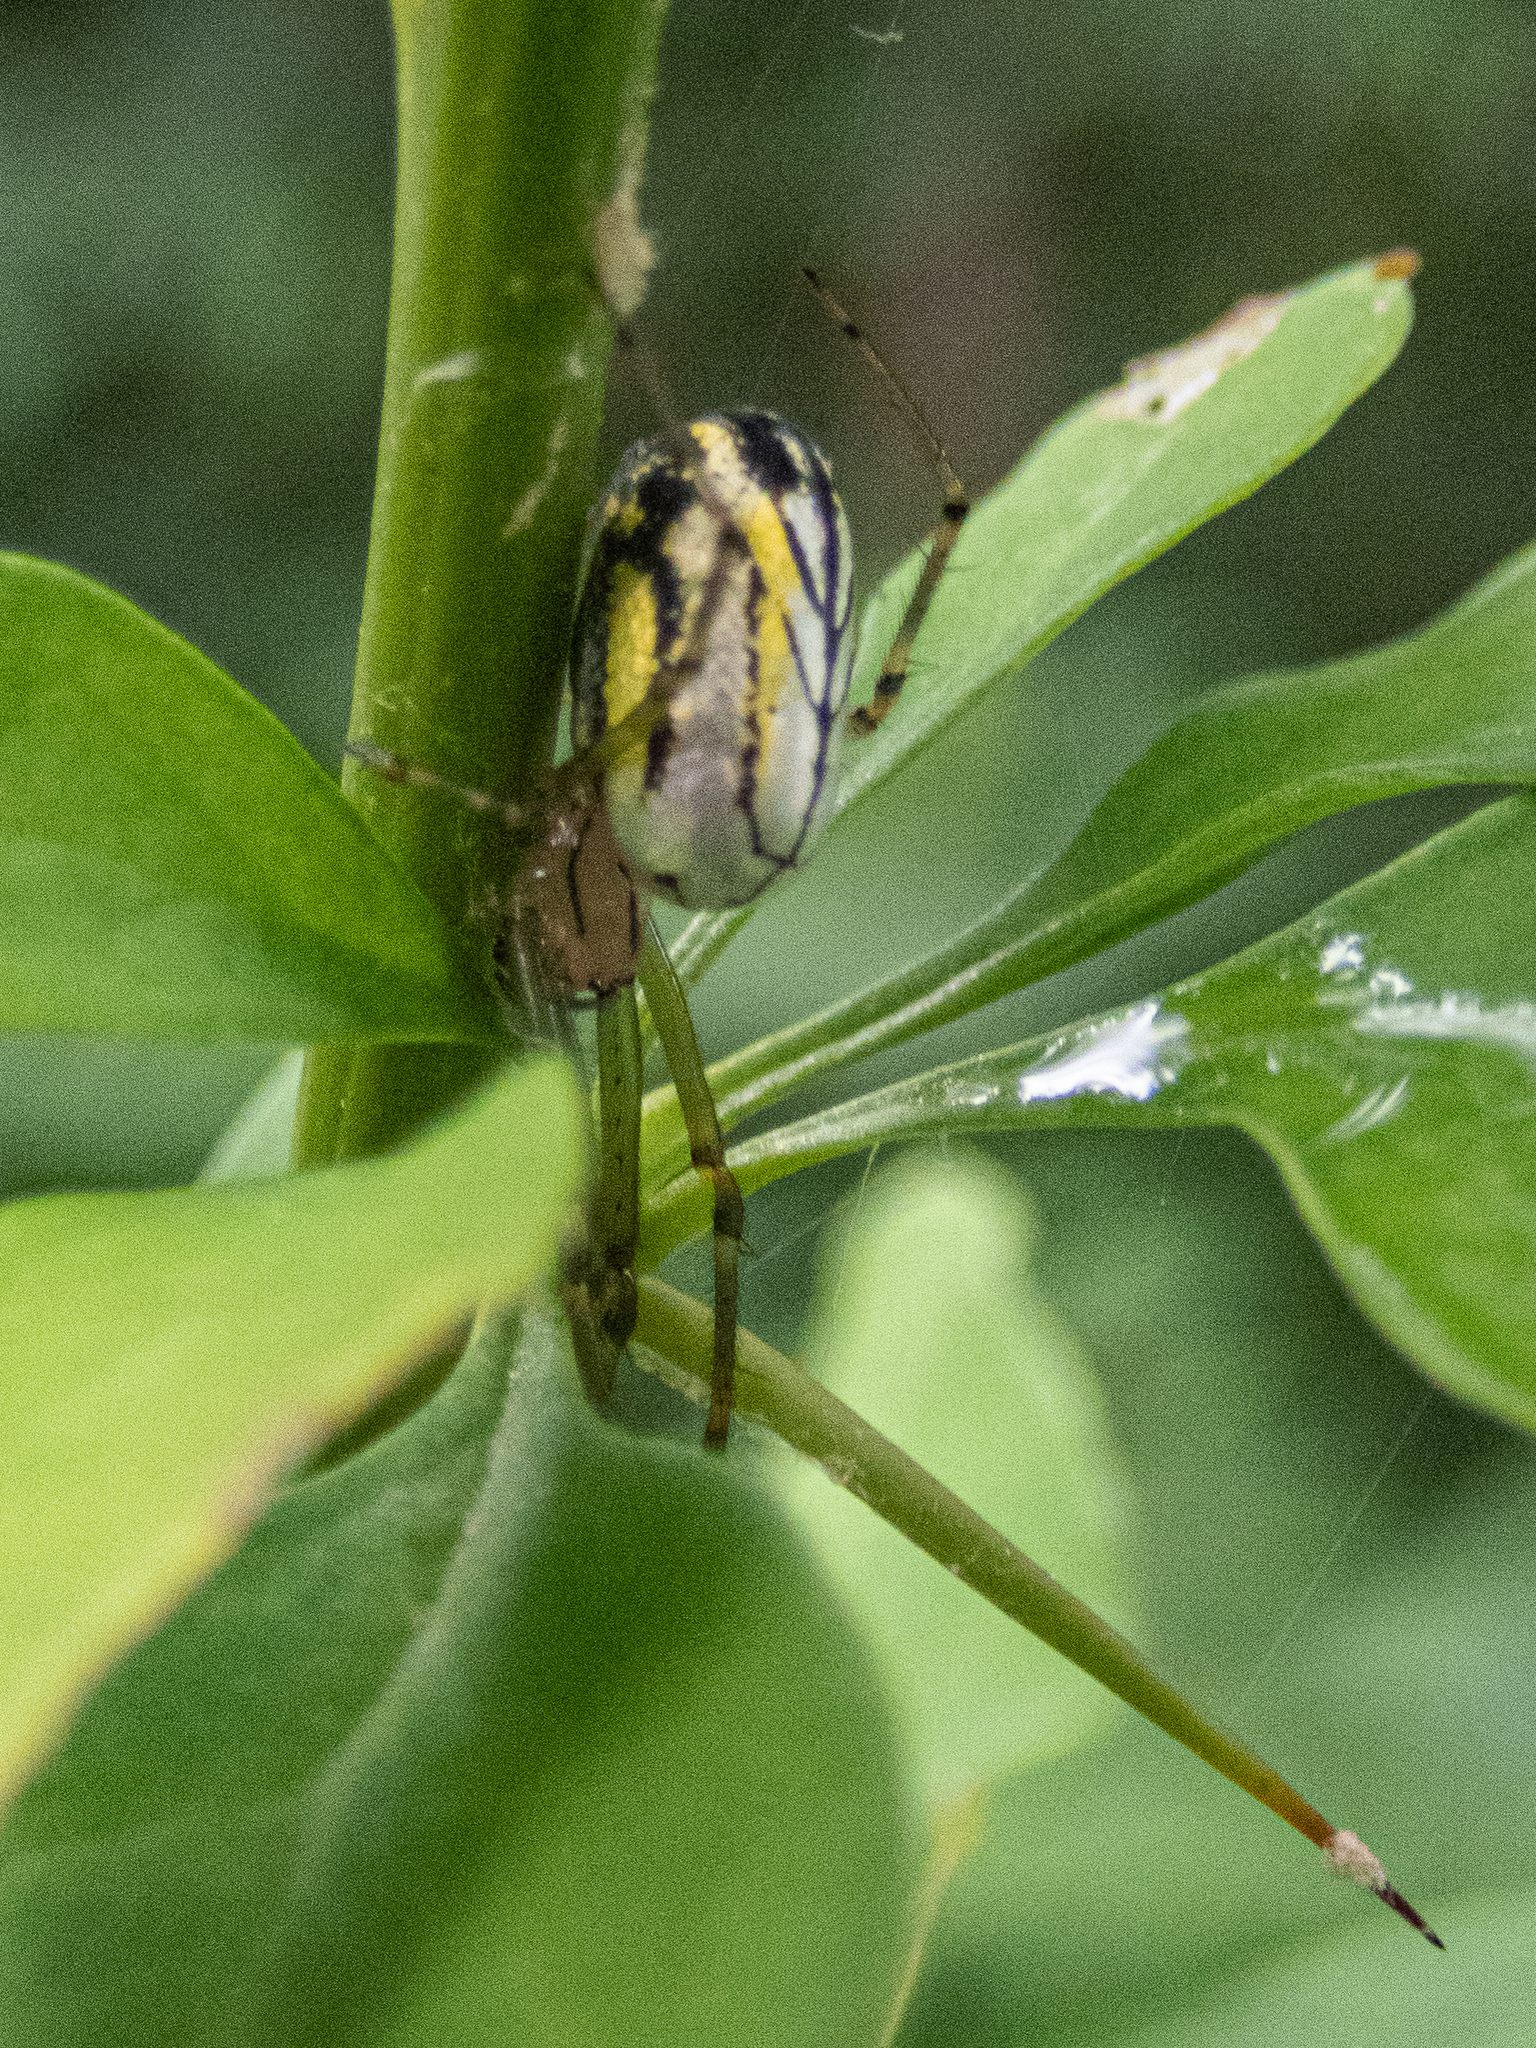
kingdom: Animalia
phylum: Arthropoda
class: Arachnida
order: Araneae
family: Tetragnathidae
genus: Leucauge
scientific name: Leucauge venusta
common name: Longjawed orb weavers
